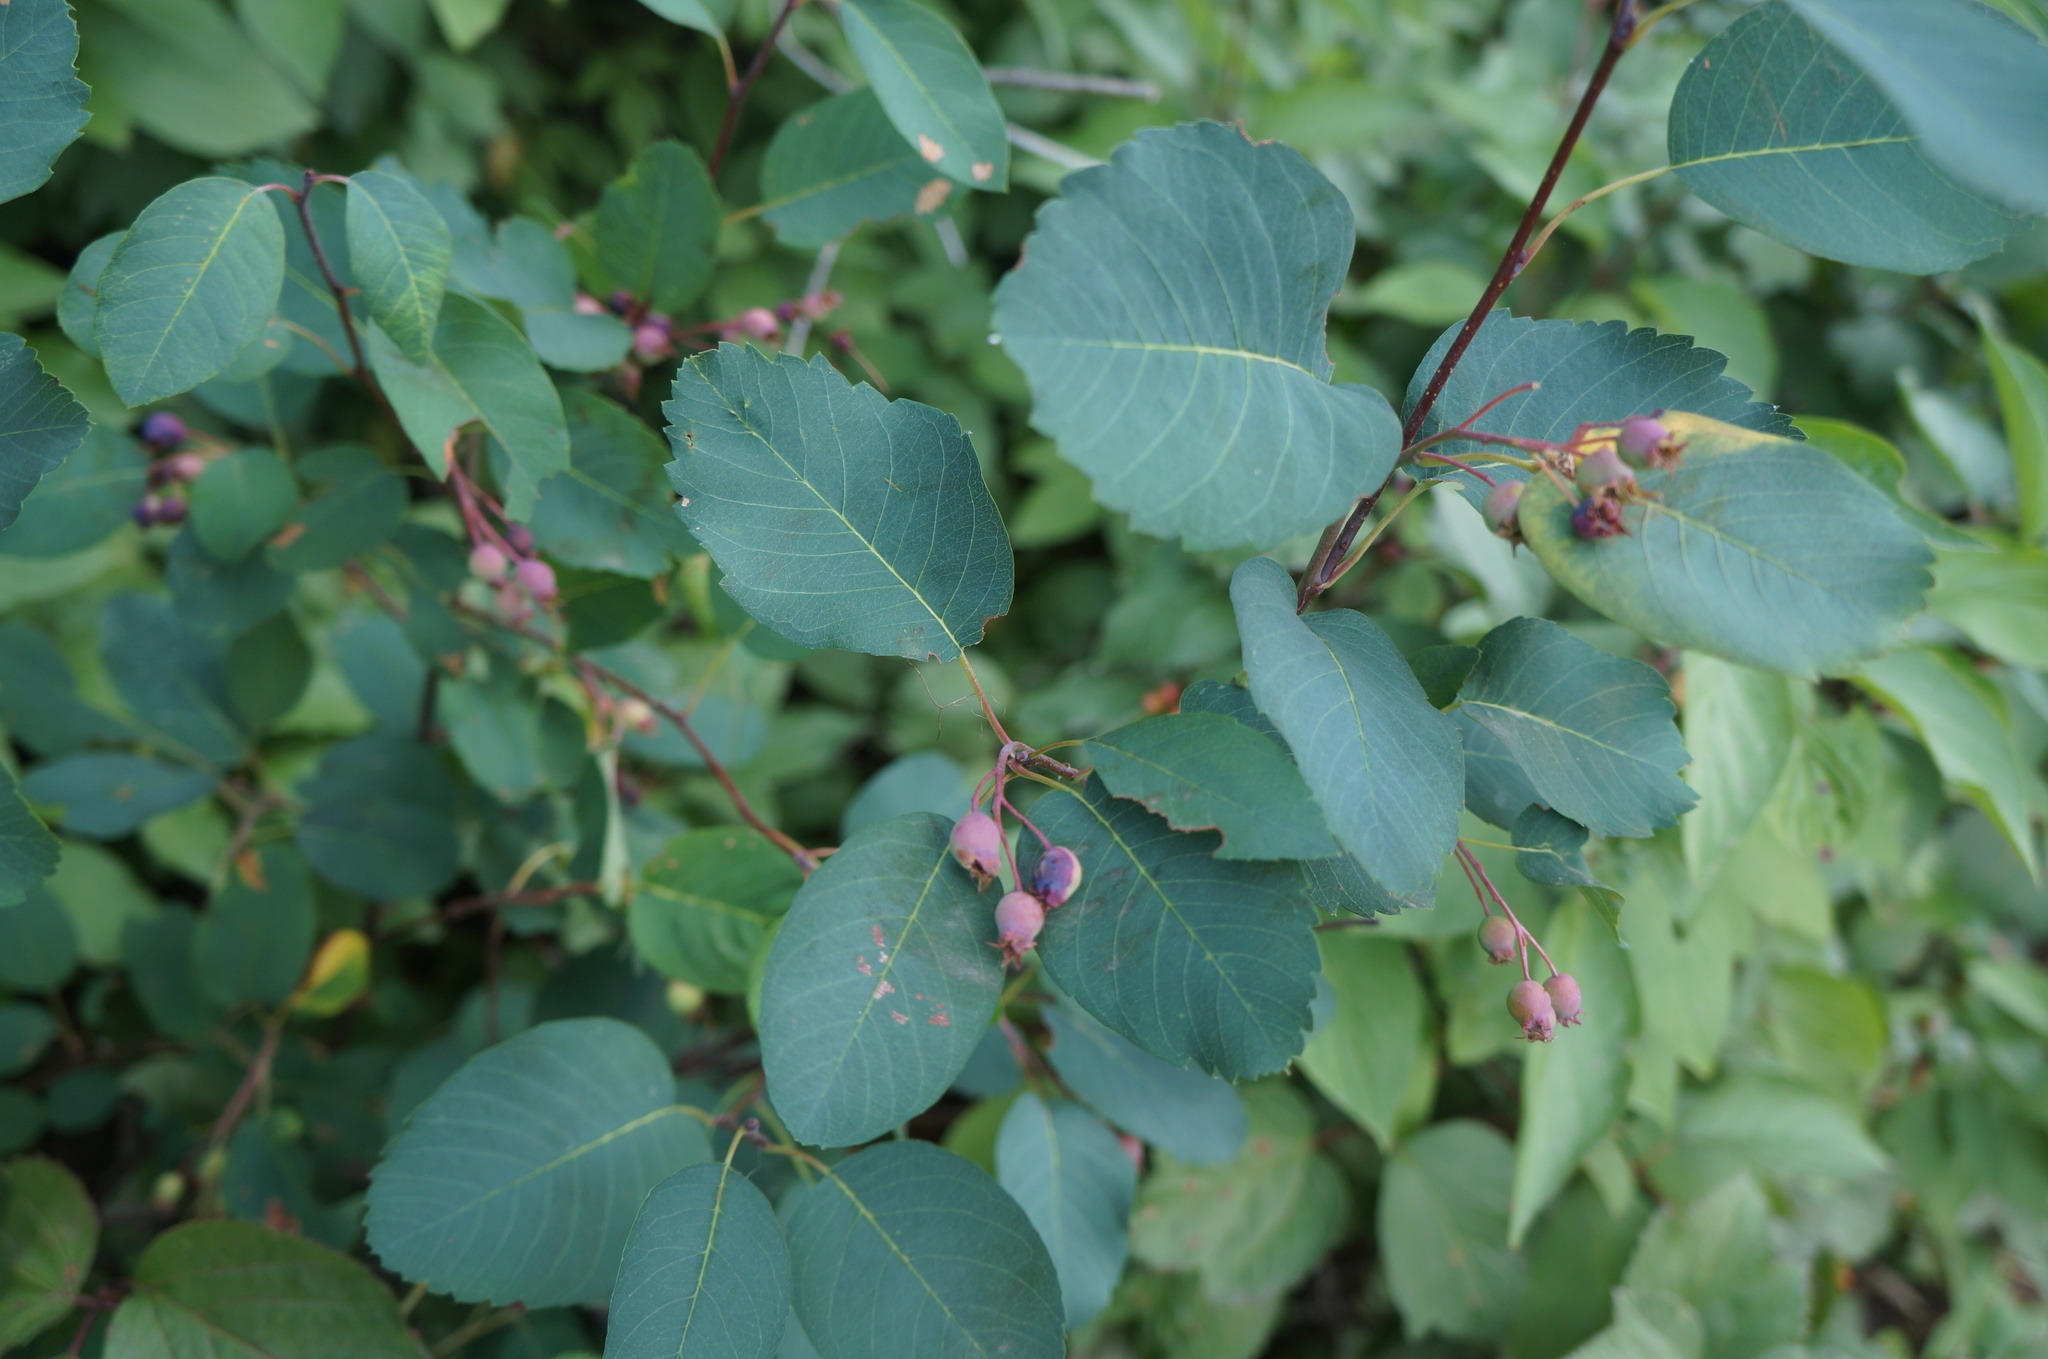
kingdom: Plantae
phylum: Tracheophyta
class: Magnoliopsida
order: Rosales
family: Rosaceae
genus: Amelanchier
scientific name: Amelanchier alnifolia
